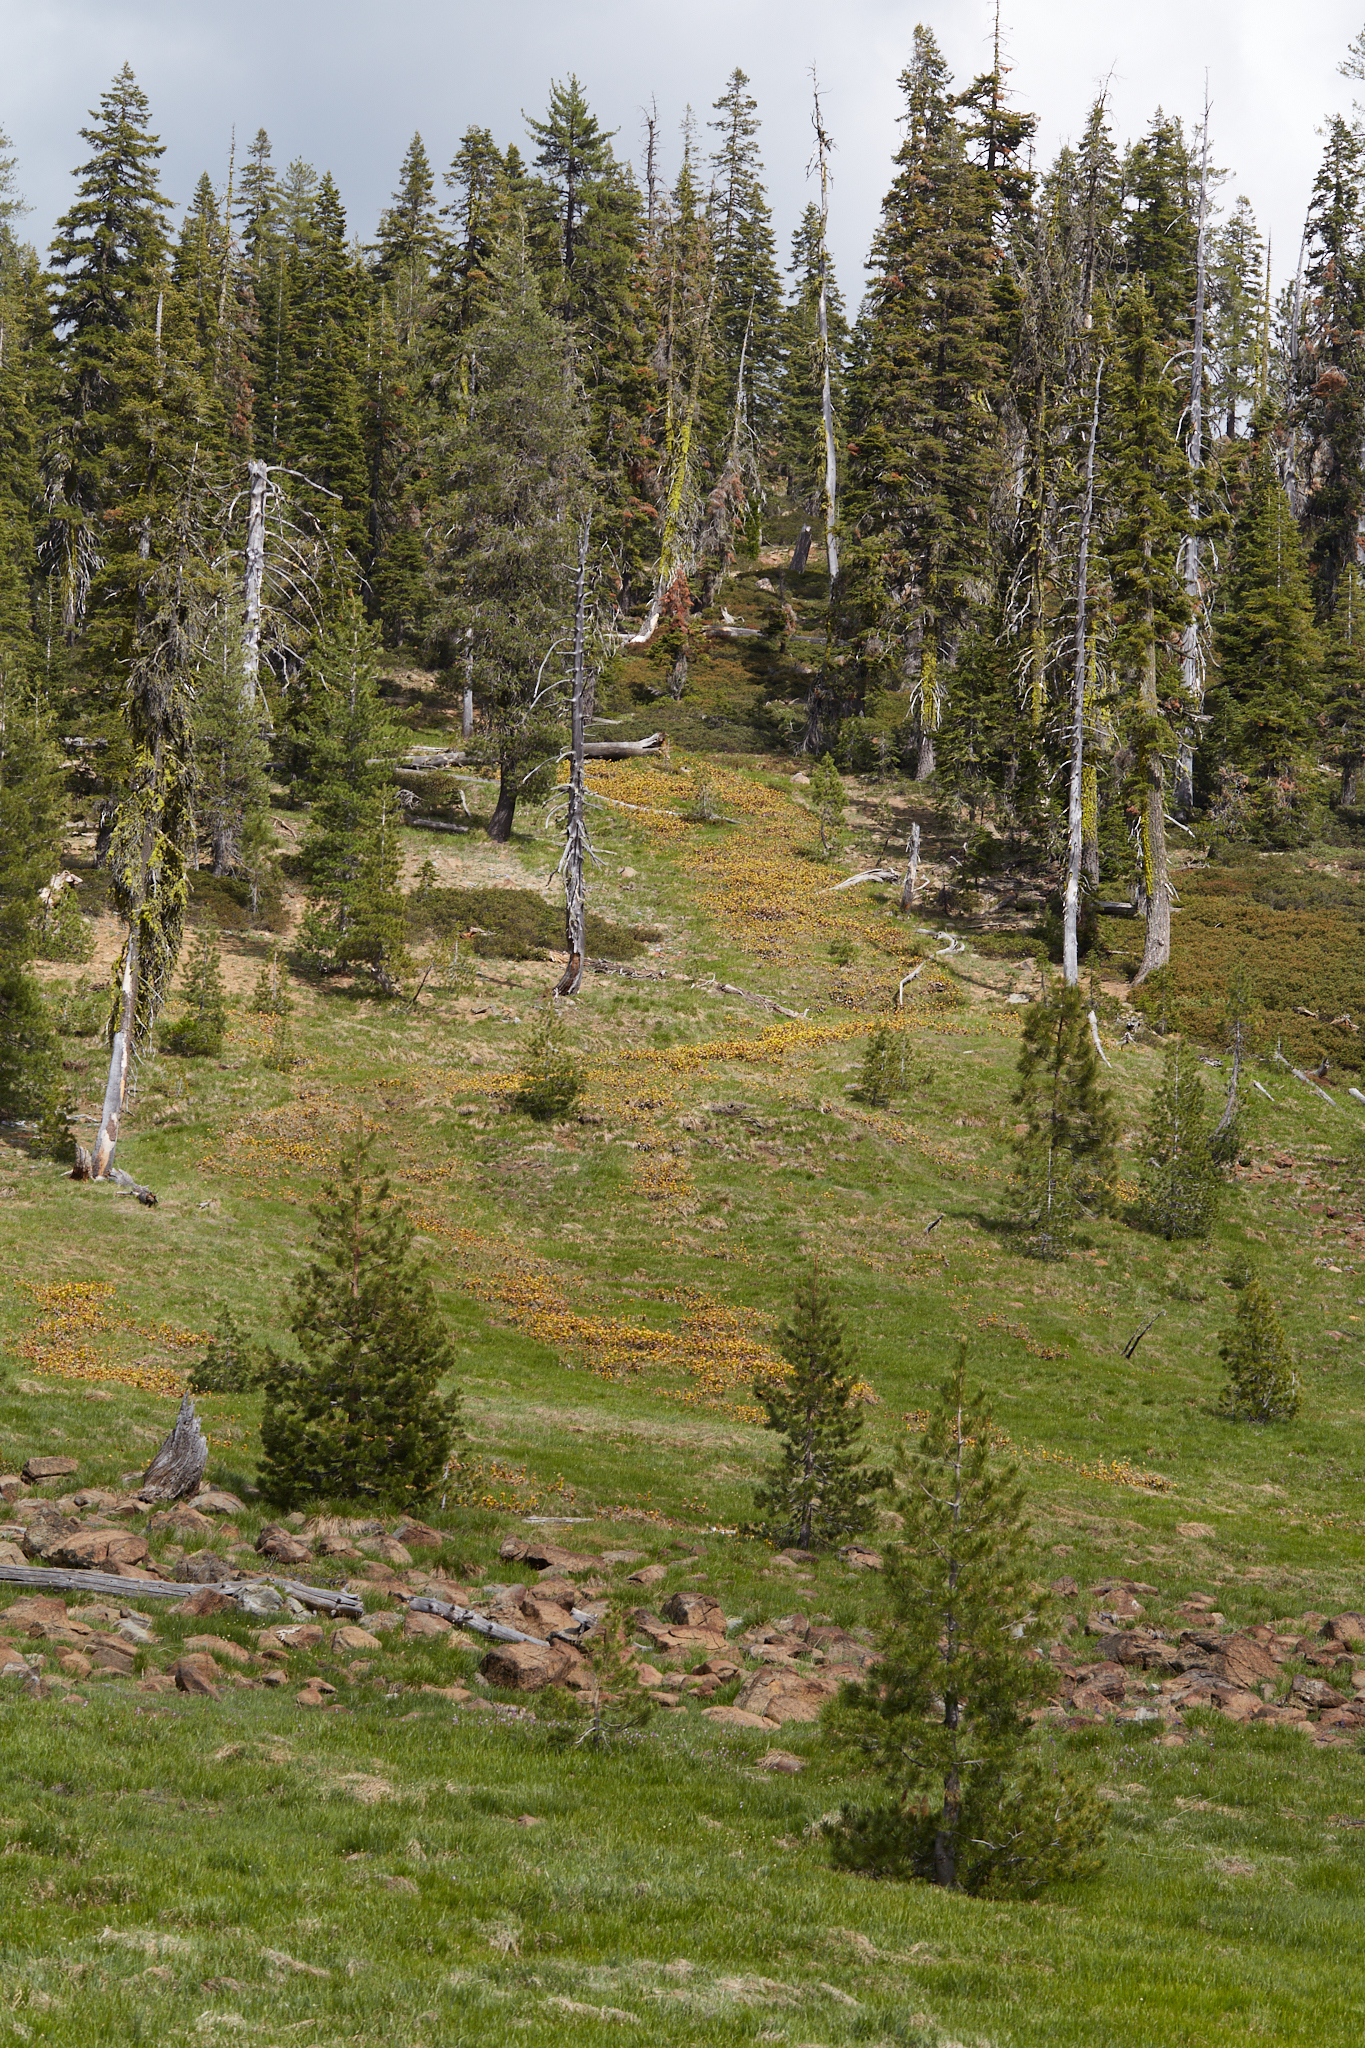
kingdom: Plantae
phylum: Tracheophyta
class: Magnoliopsida
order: Ericales
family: Sarraceniaceae
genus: Darlingtonia
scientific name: Darlingtonia californica
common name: California pitcher plant
